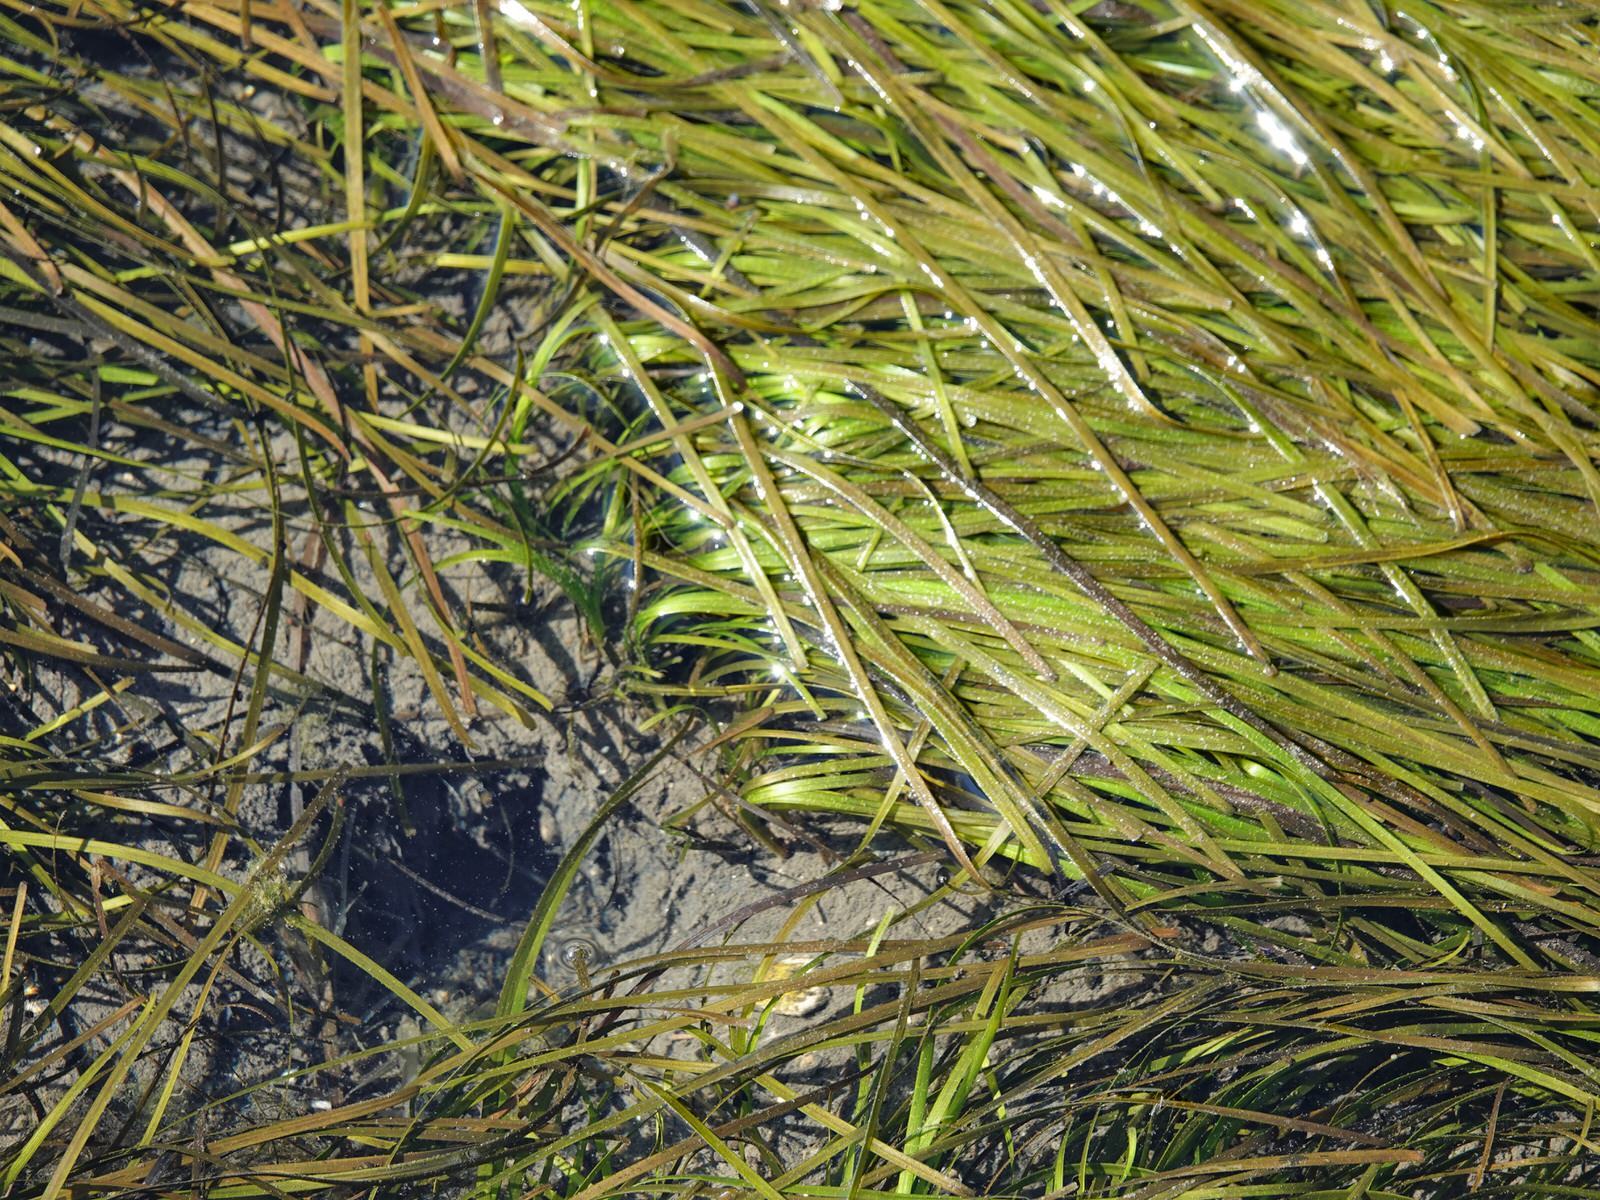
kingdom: Plantae
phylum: Tracheophyta
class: Liliopsida
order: Alismatales
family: Zosteraceae
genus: Zostera
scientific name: Zostera novazelandica
